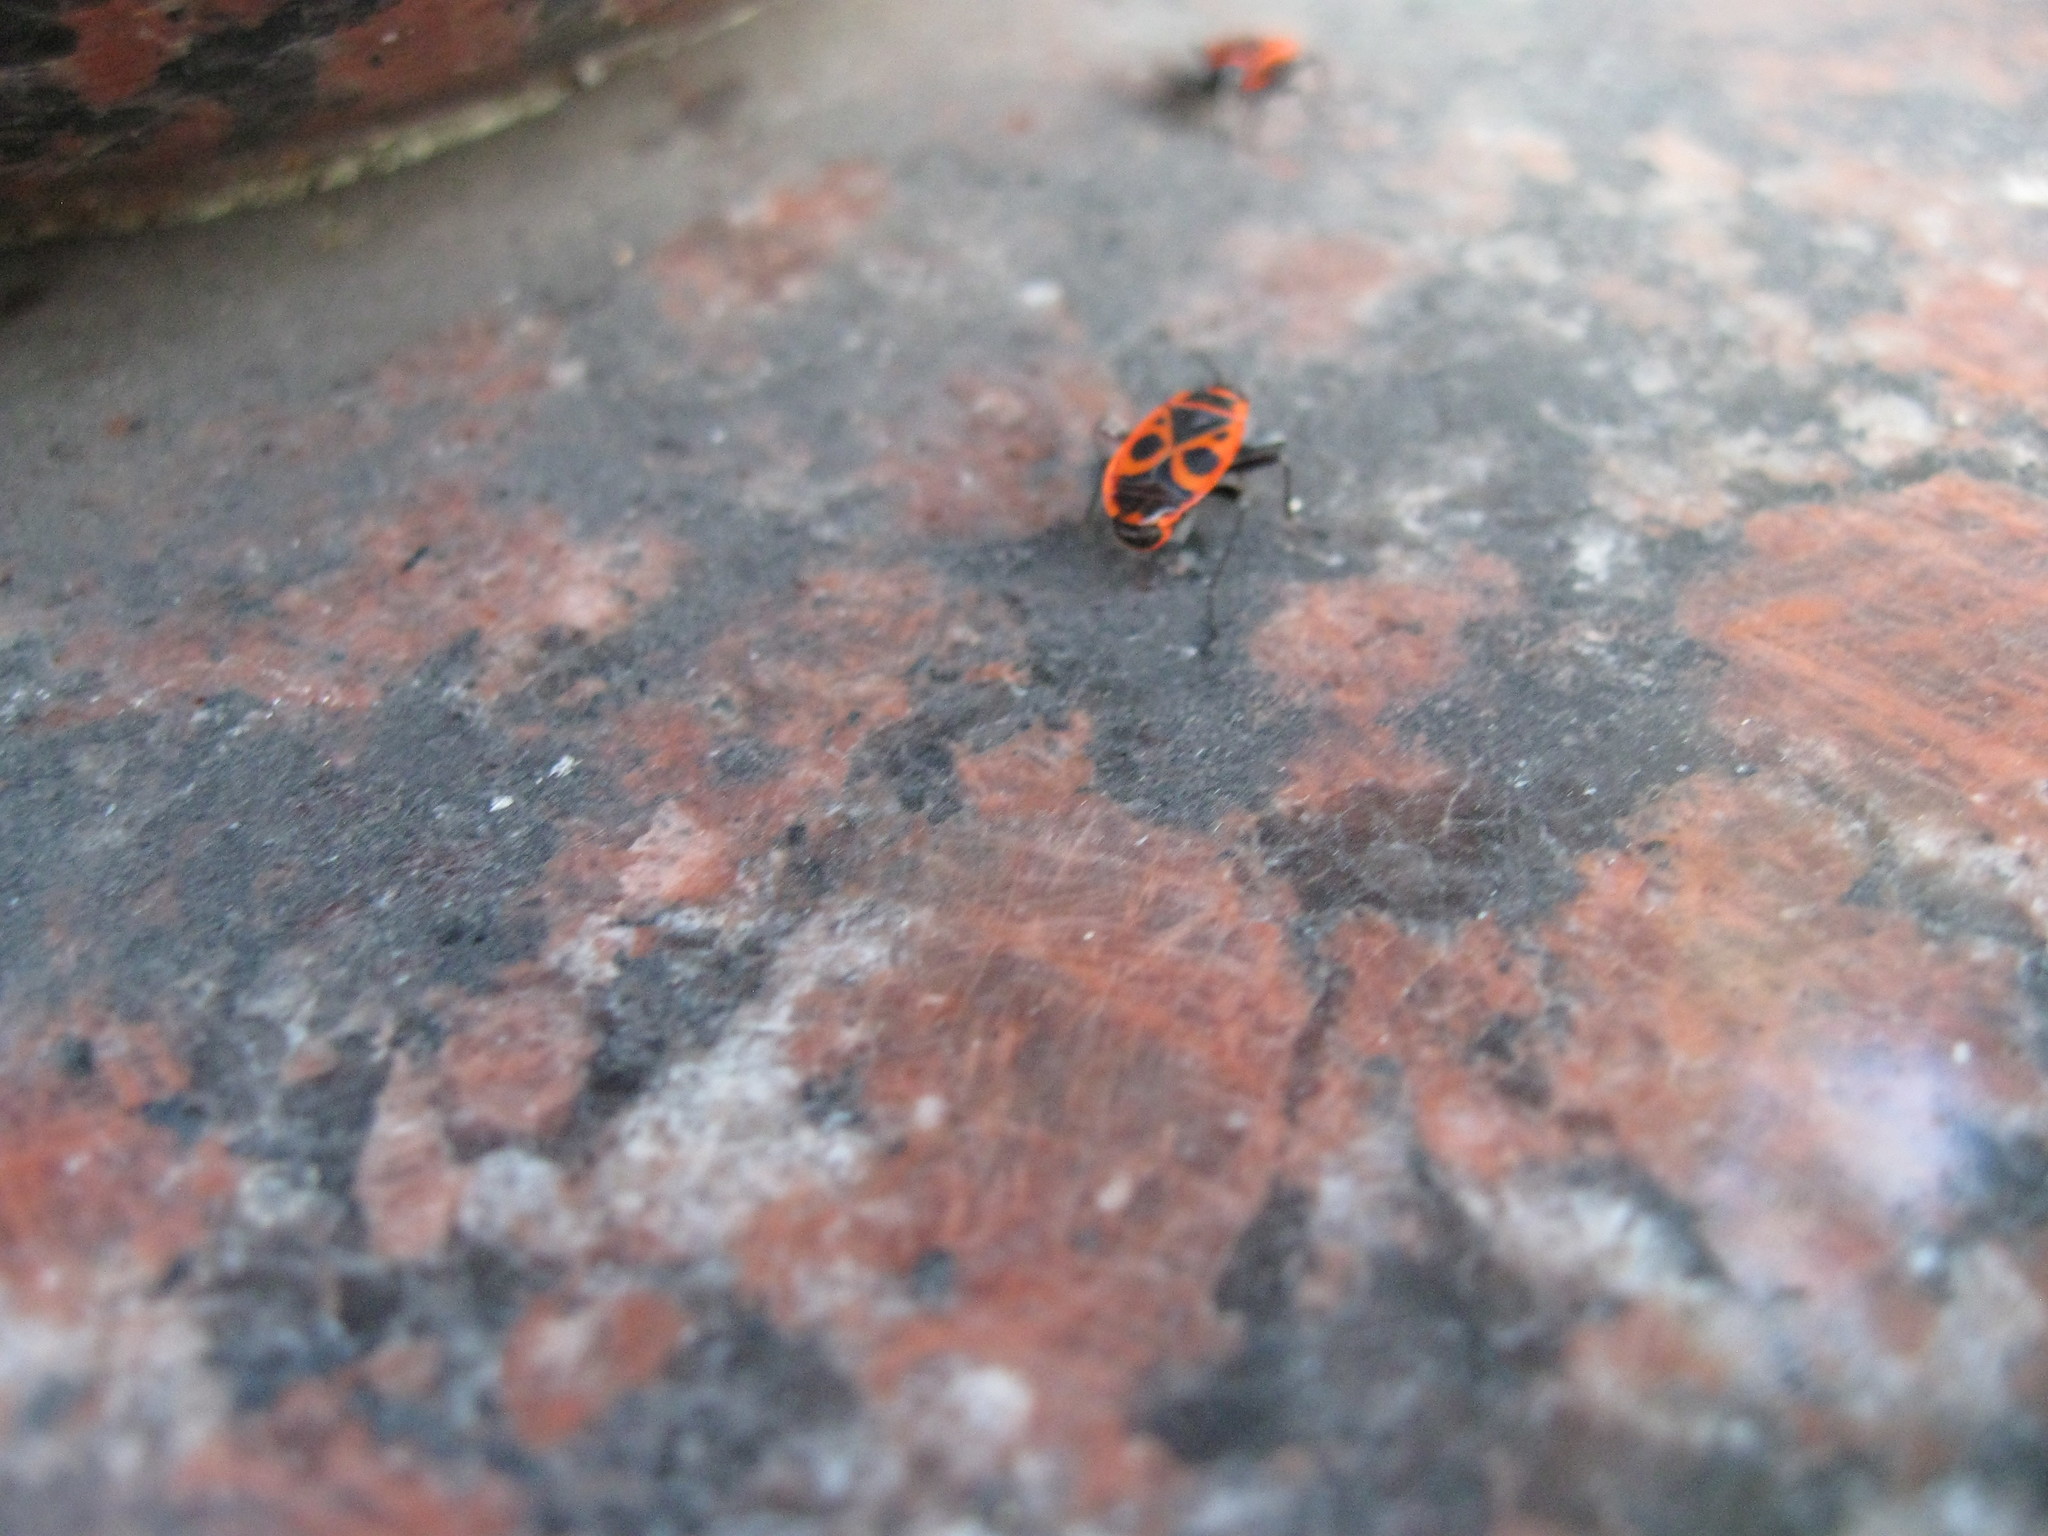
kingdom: Animalia
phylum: Arthropoda
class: Insecta
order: Hemiptera
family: Pyrrhocoridae
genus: Pyrrhocoris
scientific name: Pyrrhocoris apterus
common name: Firebug
